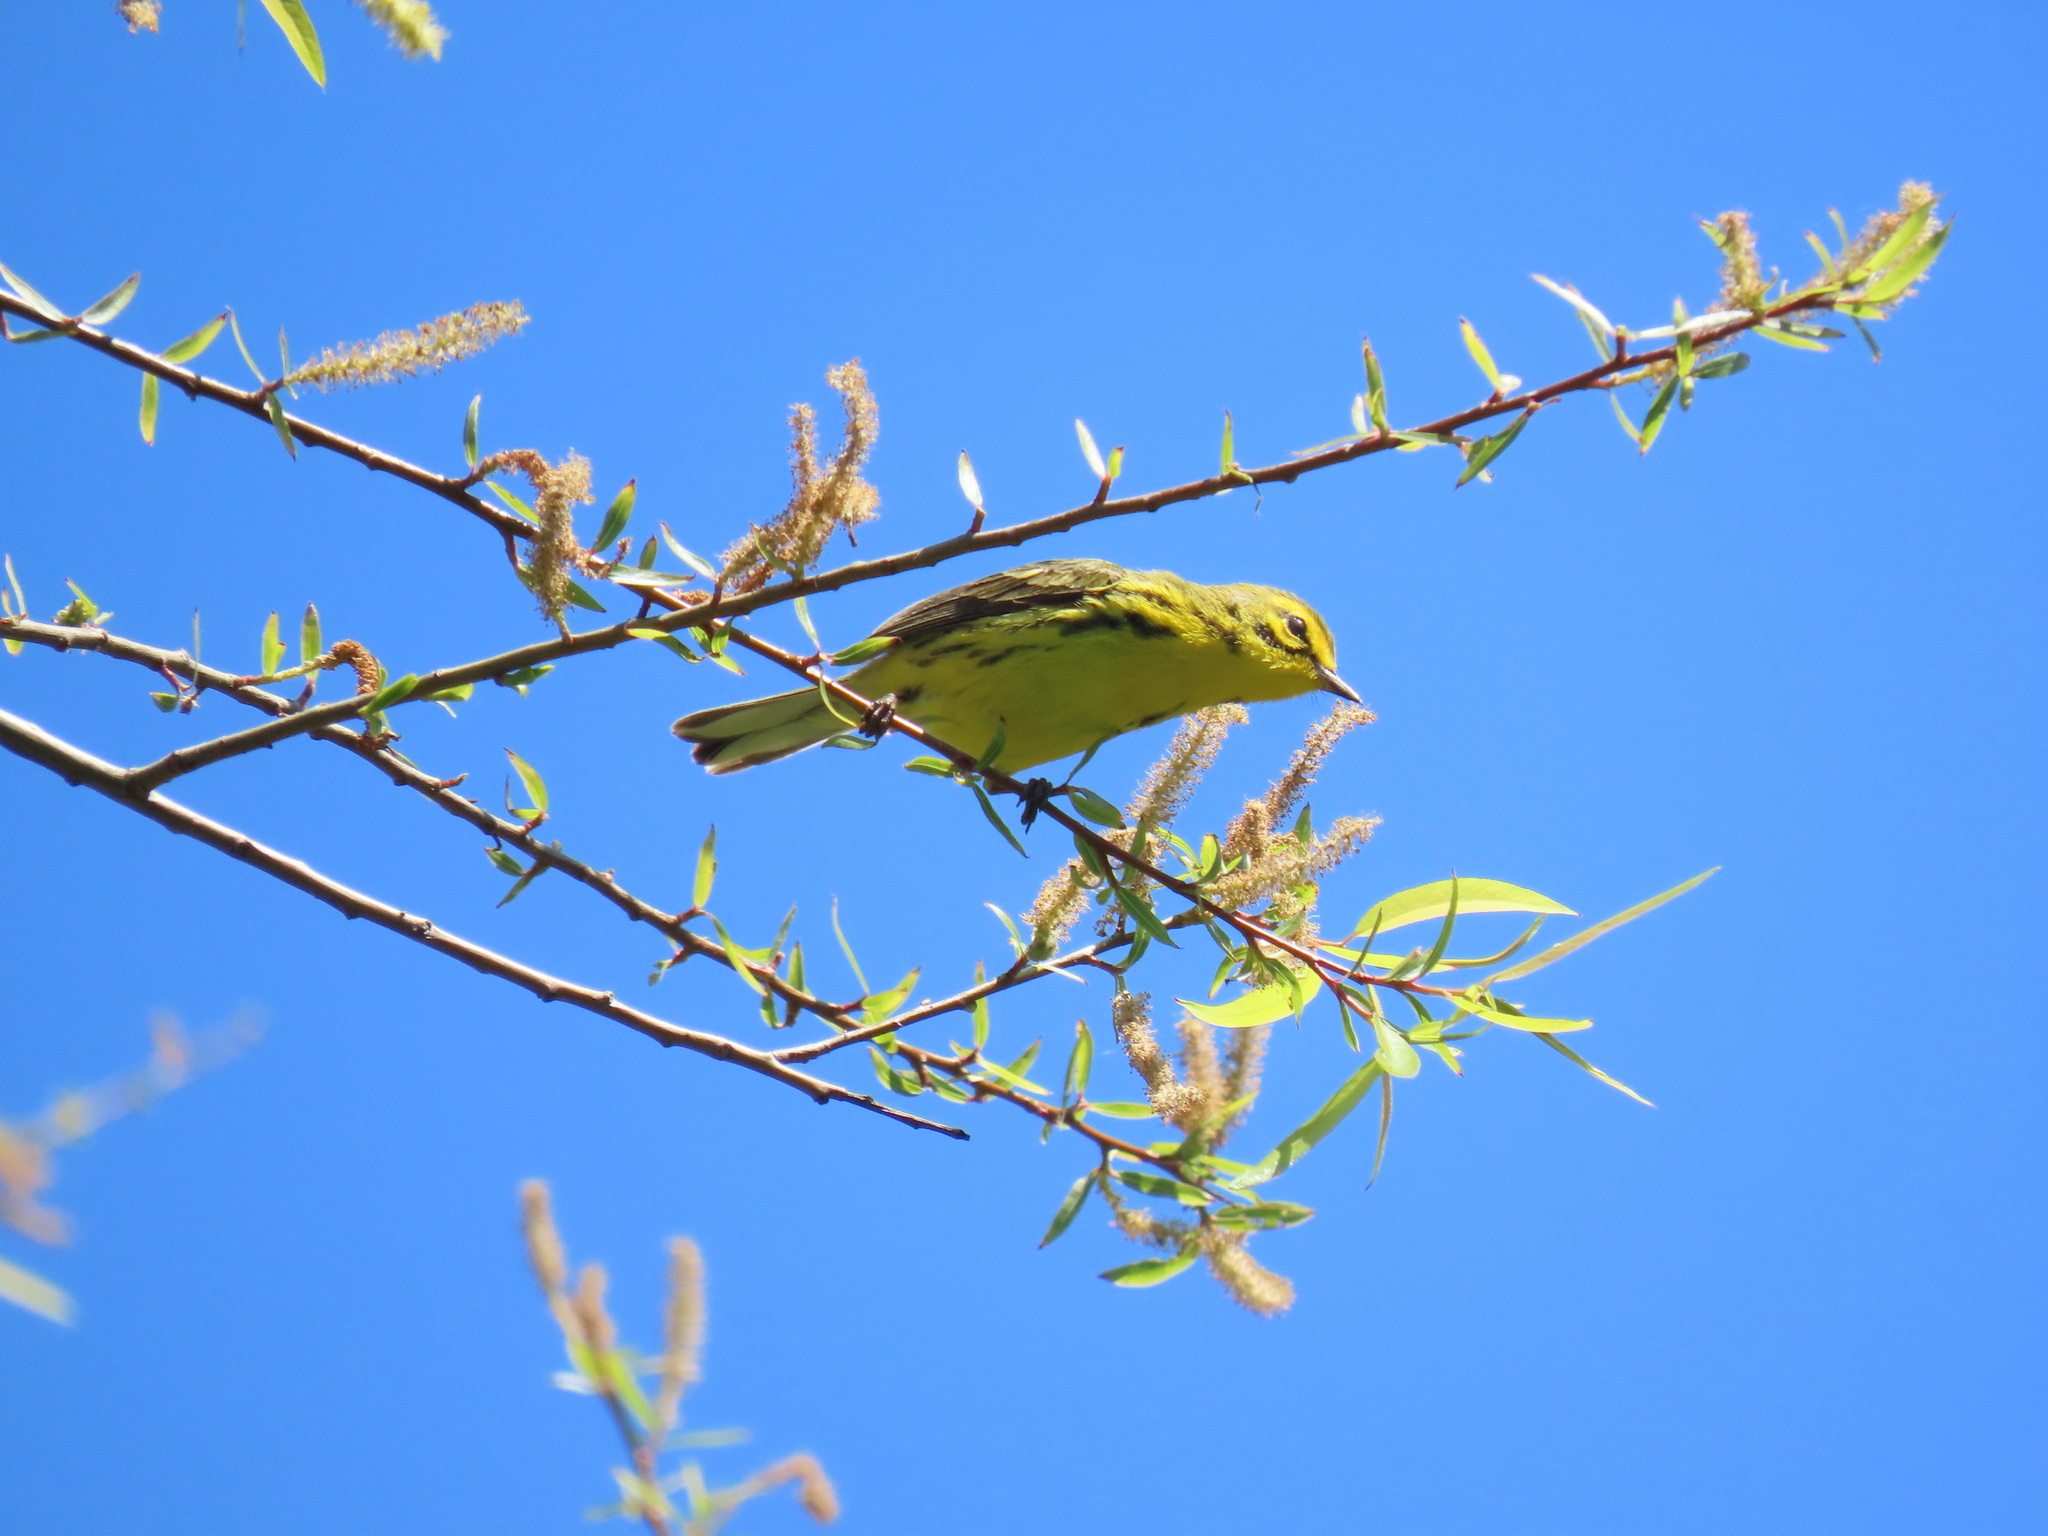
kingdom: Animalia
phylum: Chordata
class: Aves
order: Passeriformes
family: Parulidae
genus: Setophaga
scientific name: Setophaga discolor
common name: Prairie warbler
